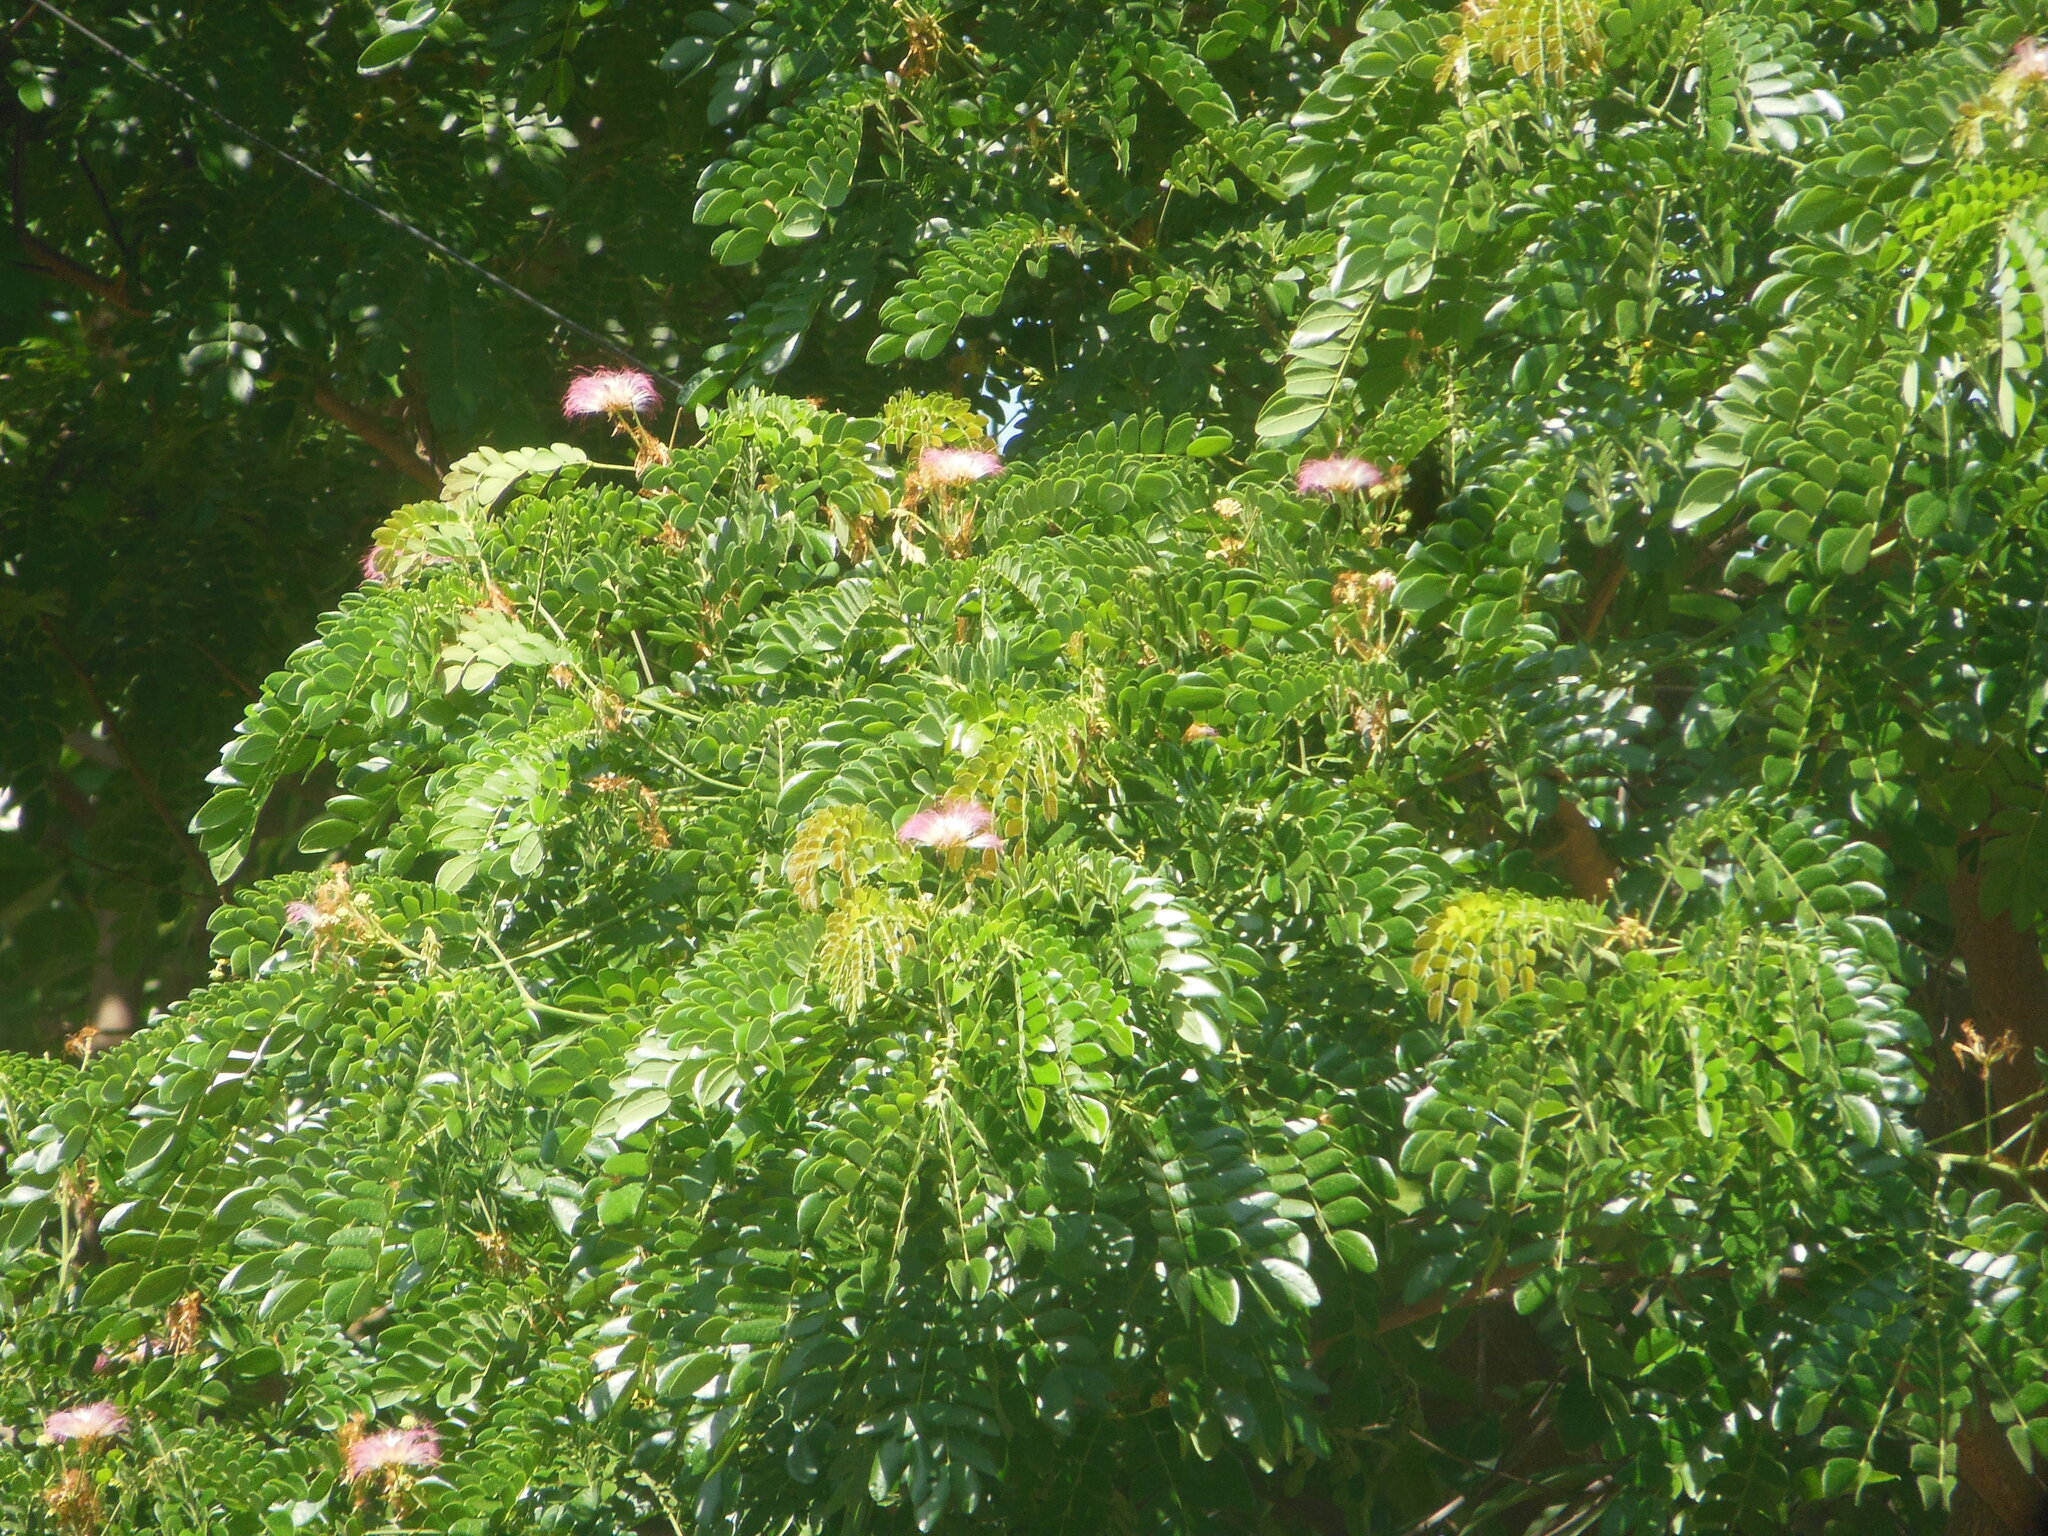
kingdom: Plantae
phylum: Tracheophyta
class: Magnoliopsida
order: Fabales
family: Fabaceae
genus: Samanea
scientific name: Samanea saman
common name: Raintree
